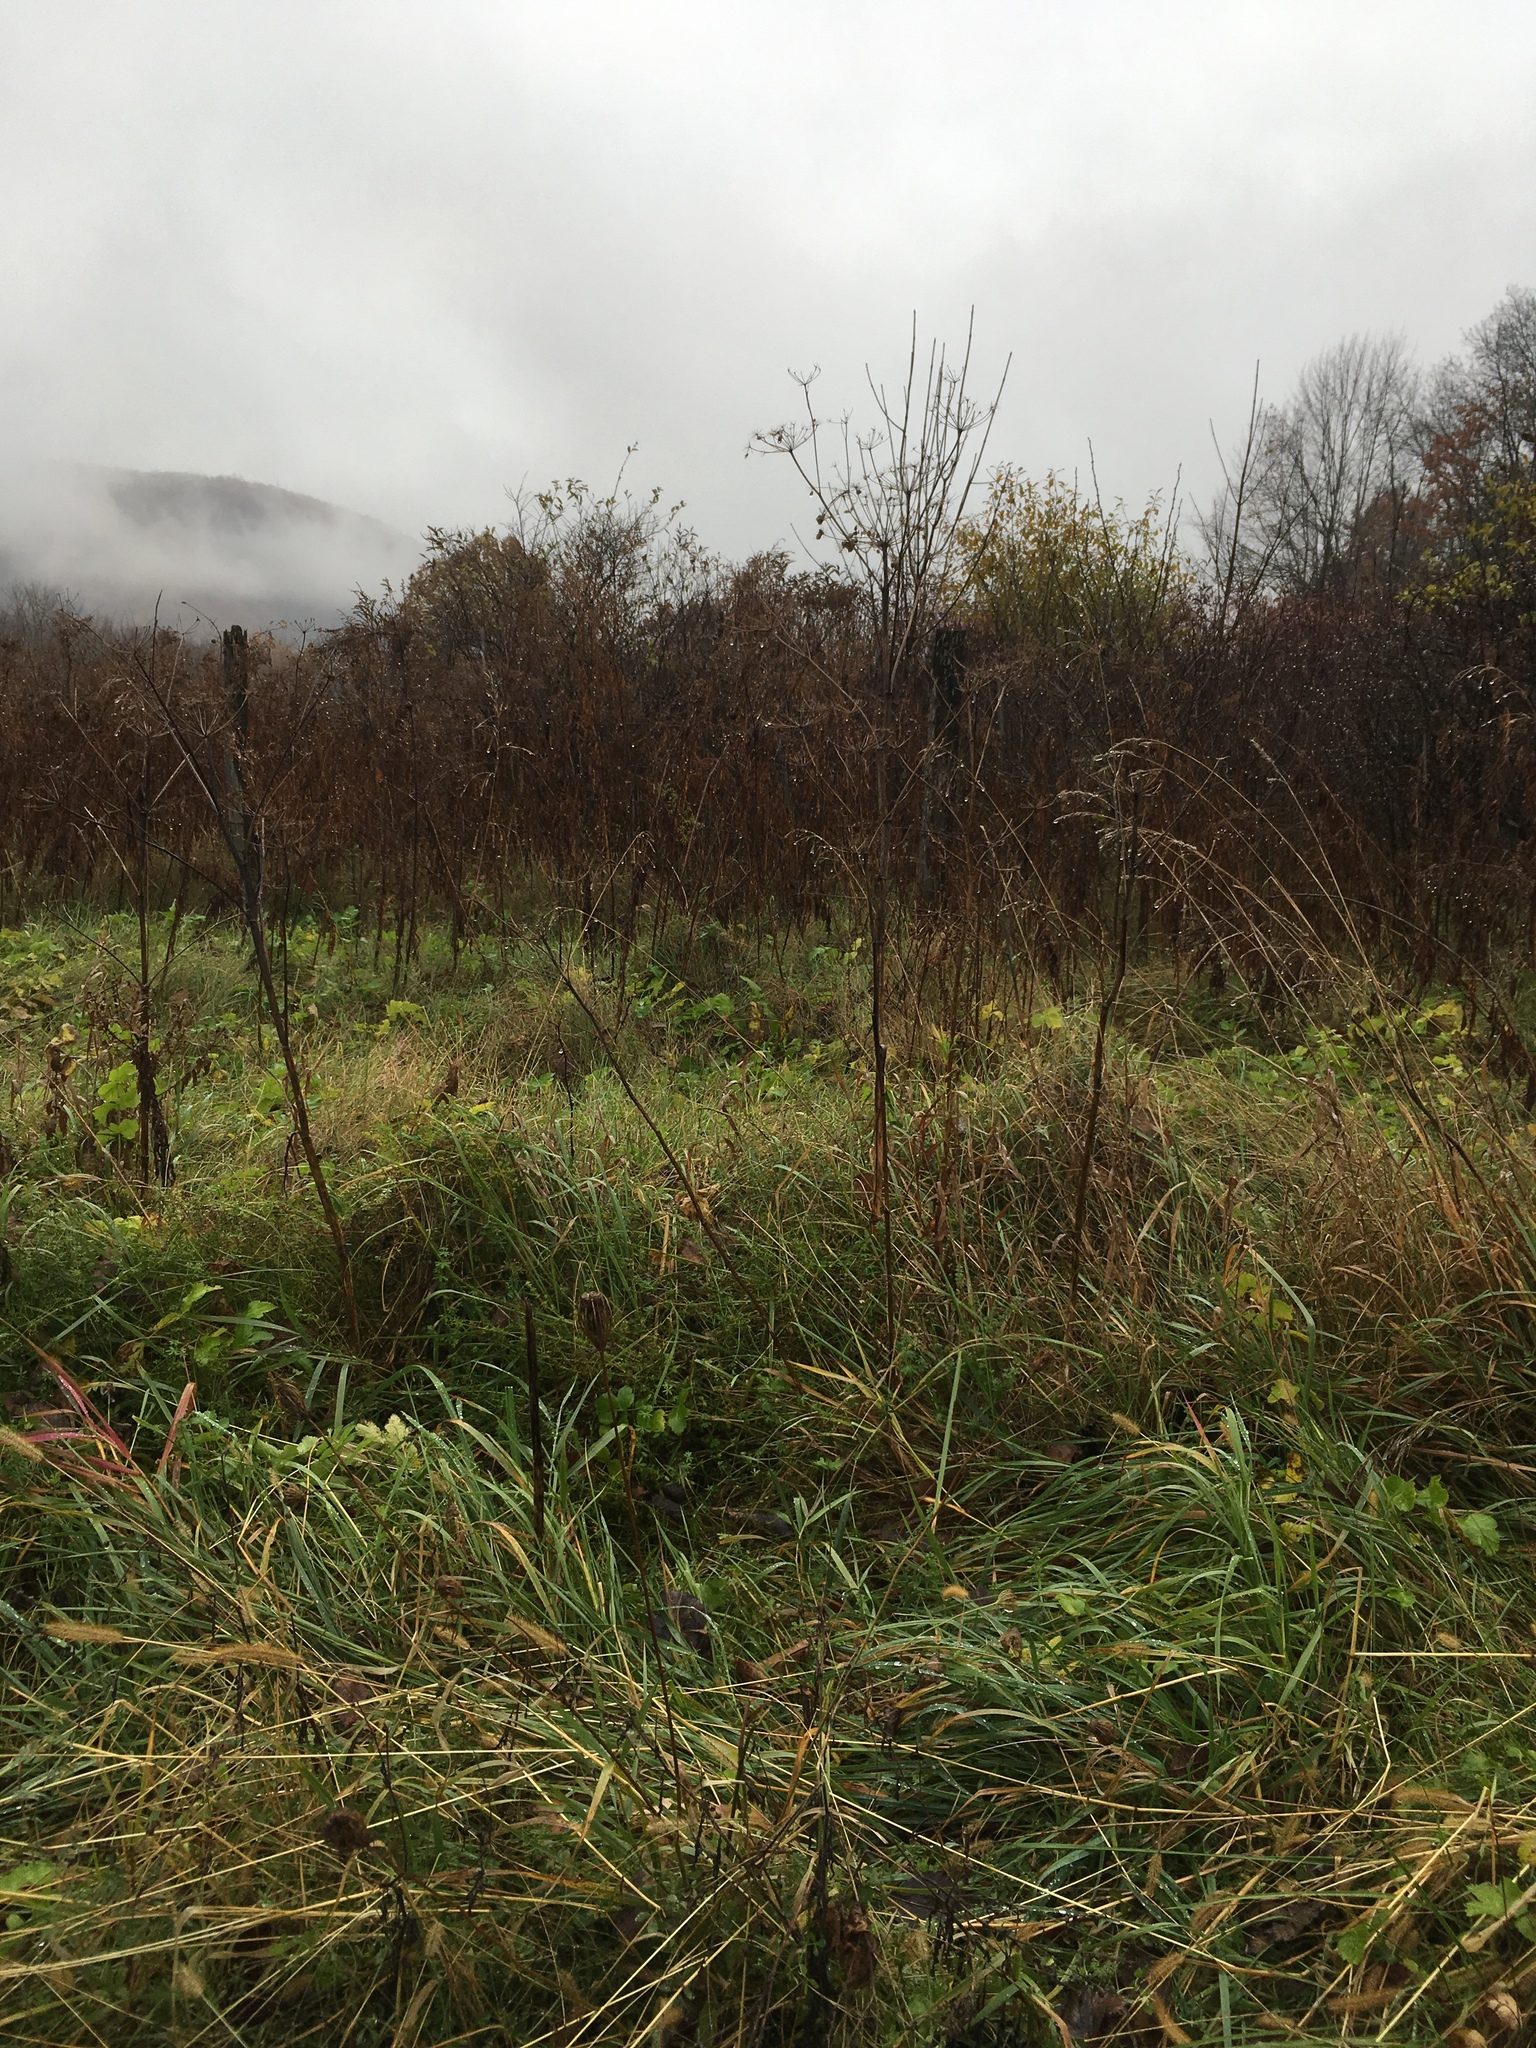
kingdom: Plantae
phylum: Tracheophyta
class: Magnoliopsida
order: Apiales
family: Apiaceae
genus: Pastinaca
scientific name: Pastinaca sativa
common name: Wild parsnip
